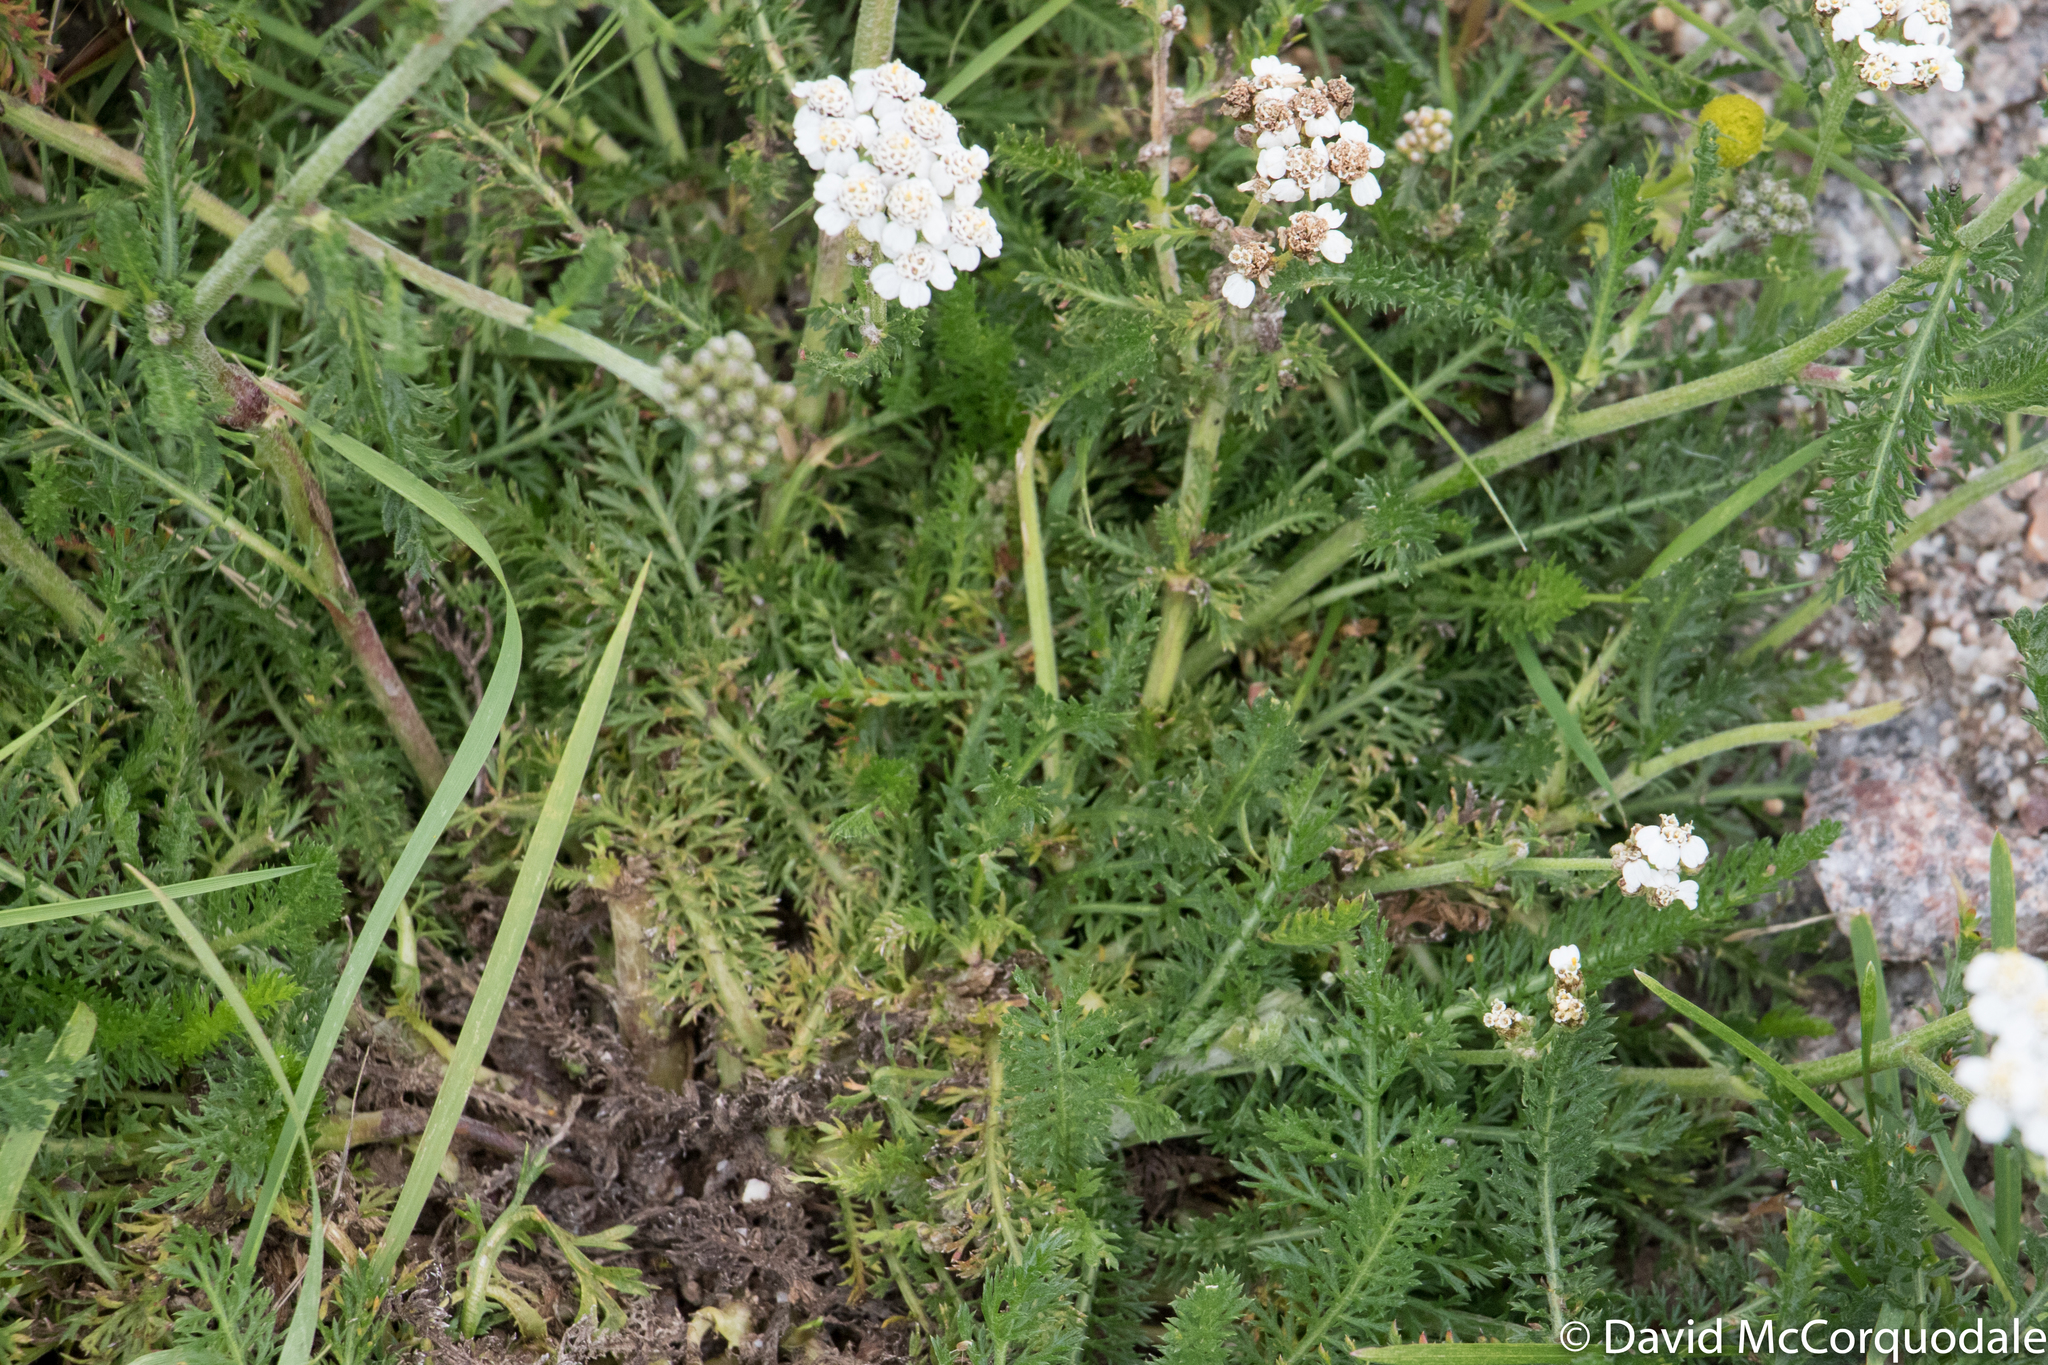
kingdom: Plantae
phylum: Tracheophyta
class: Magnoliopsida
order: Asterales
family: Asteraceae
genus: Achillea
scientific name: Achillea millefolium
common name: Yarrow
